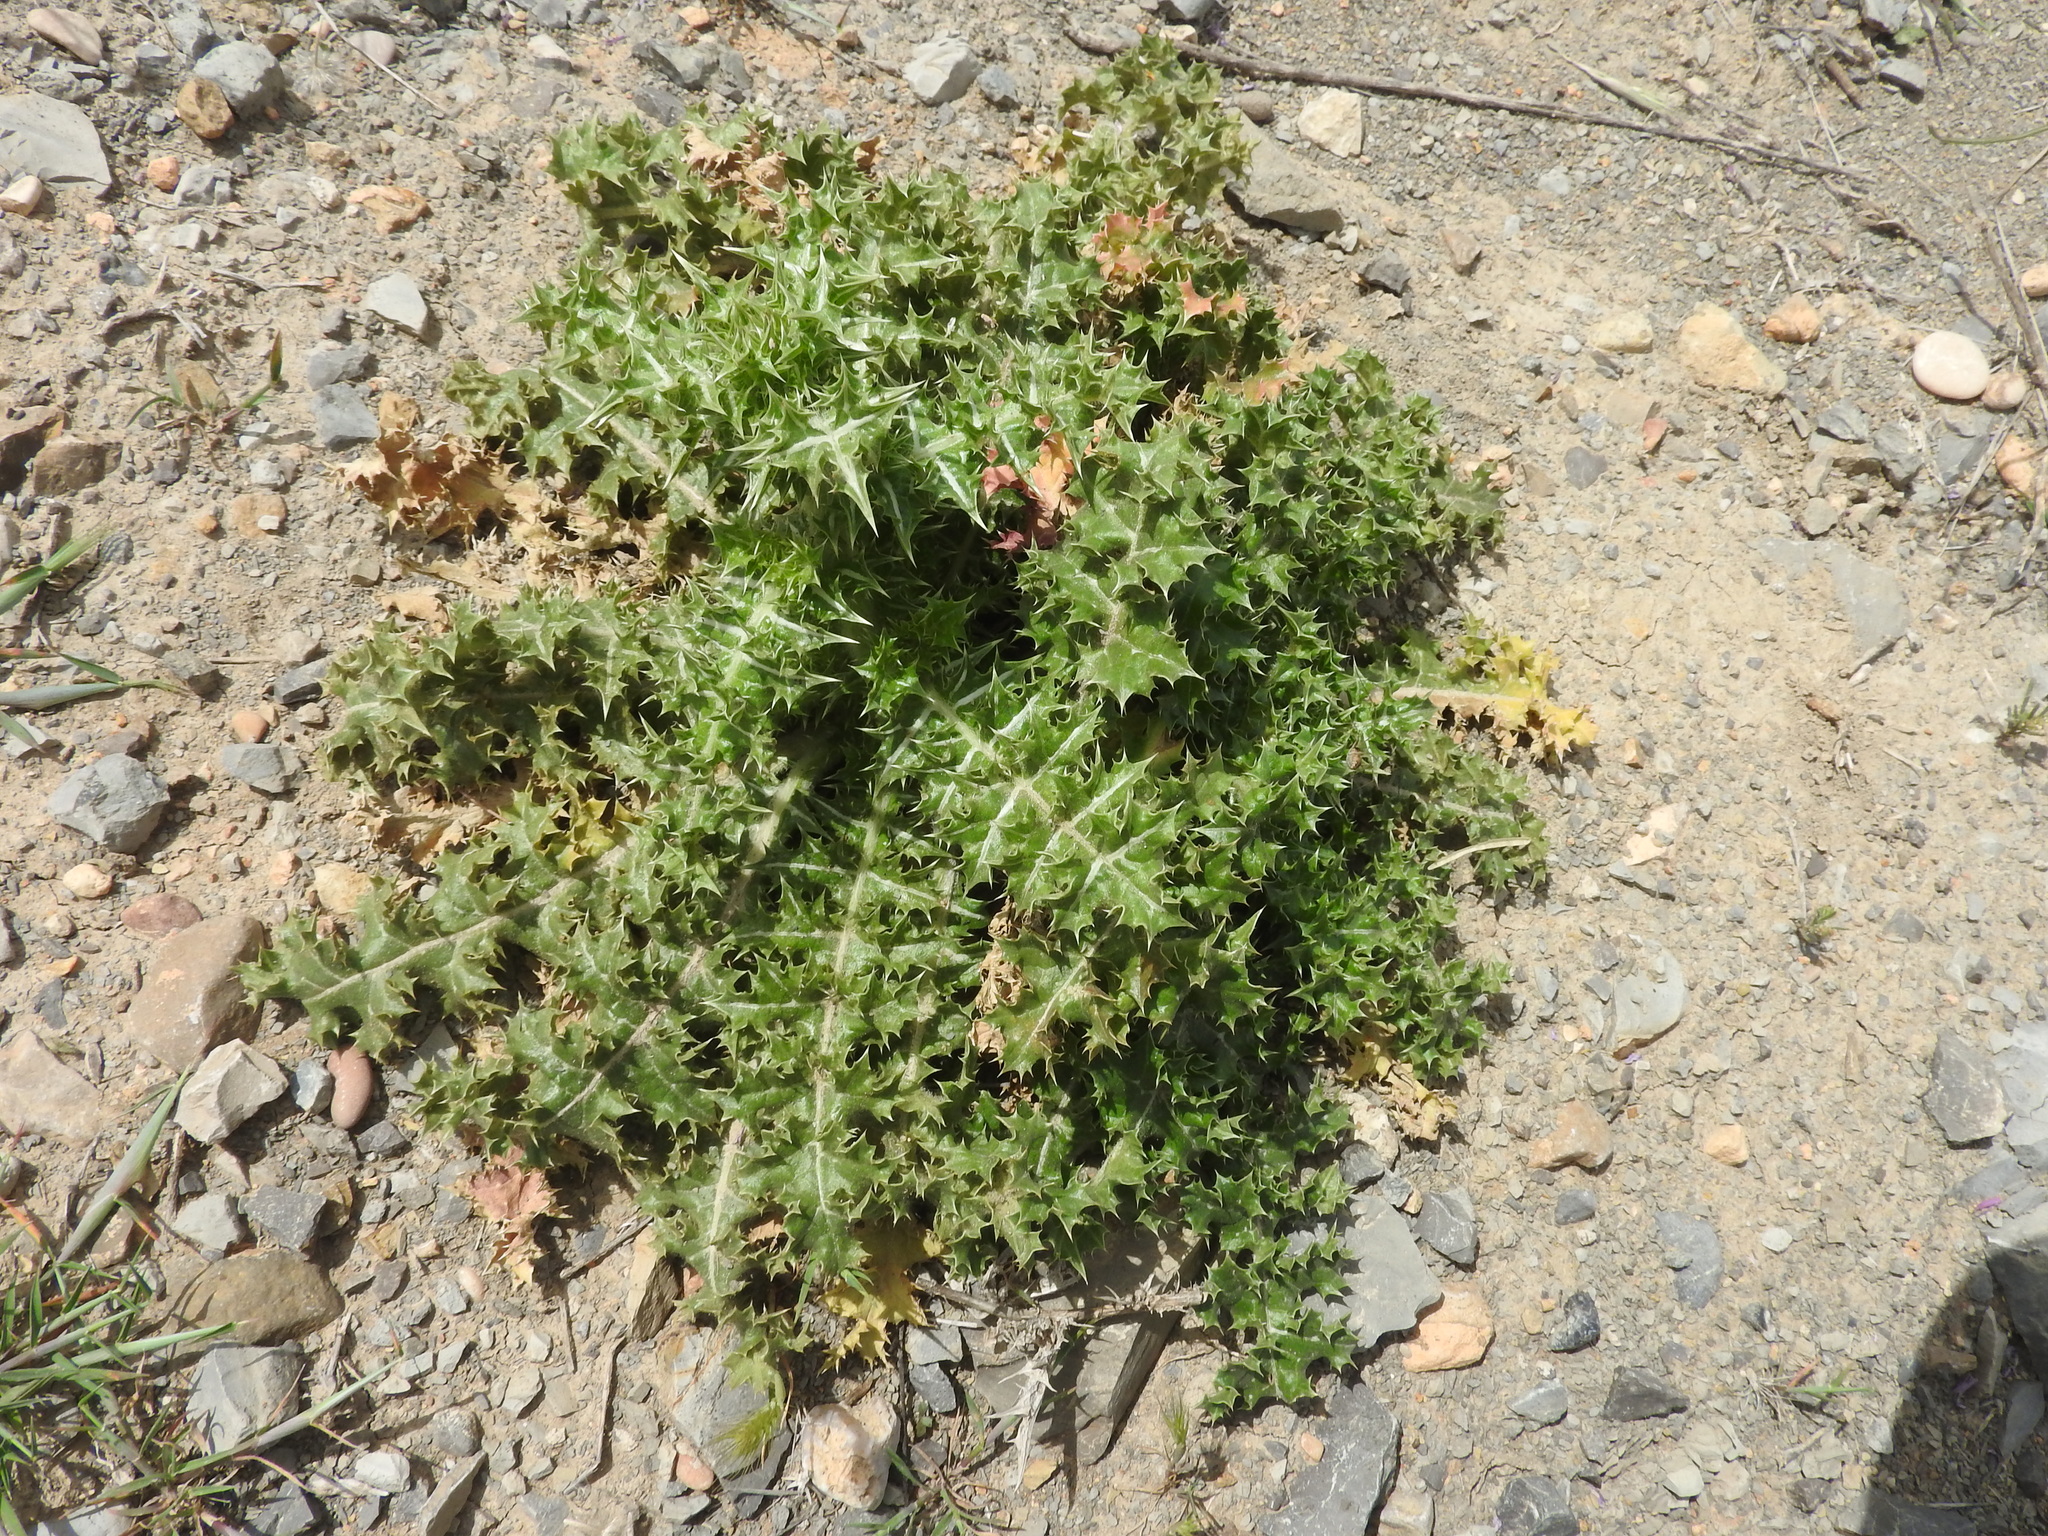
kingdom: Plantae
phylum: Tracheophyta
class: Magnoliopsida
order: Asterales
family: Asteraceae
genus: Scolymus
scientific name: Scolymus hispanicus
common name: Golden thistle
